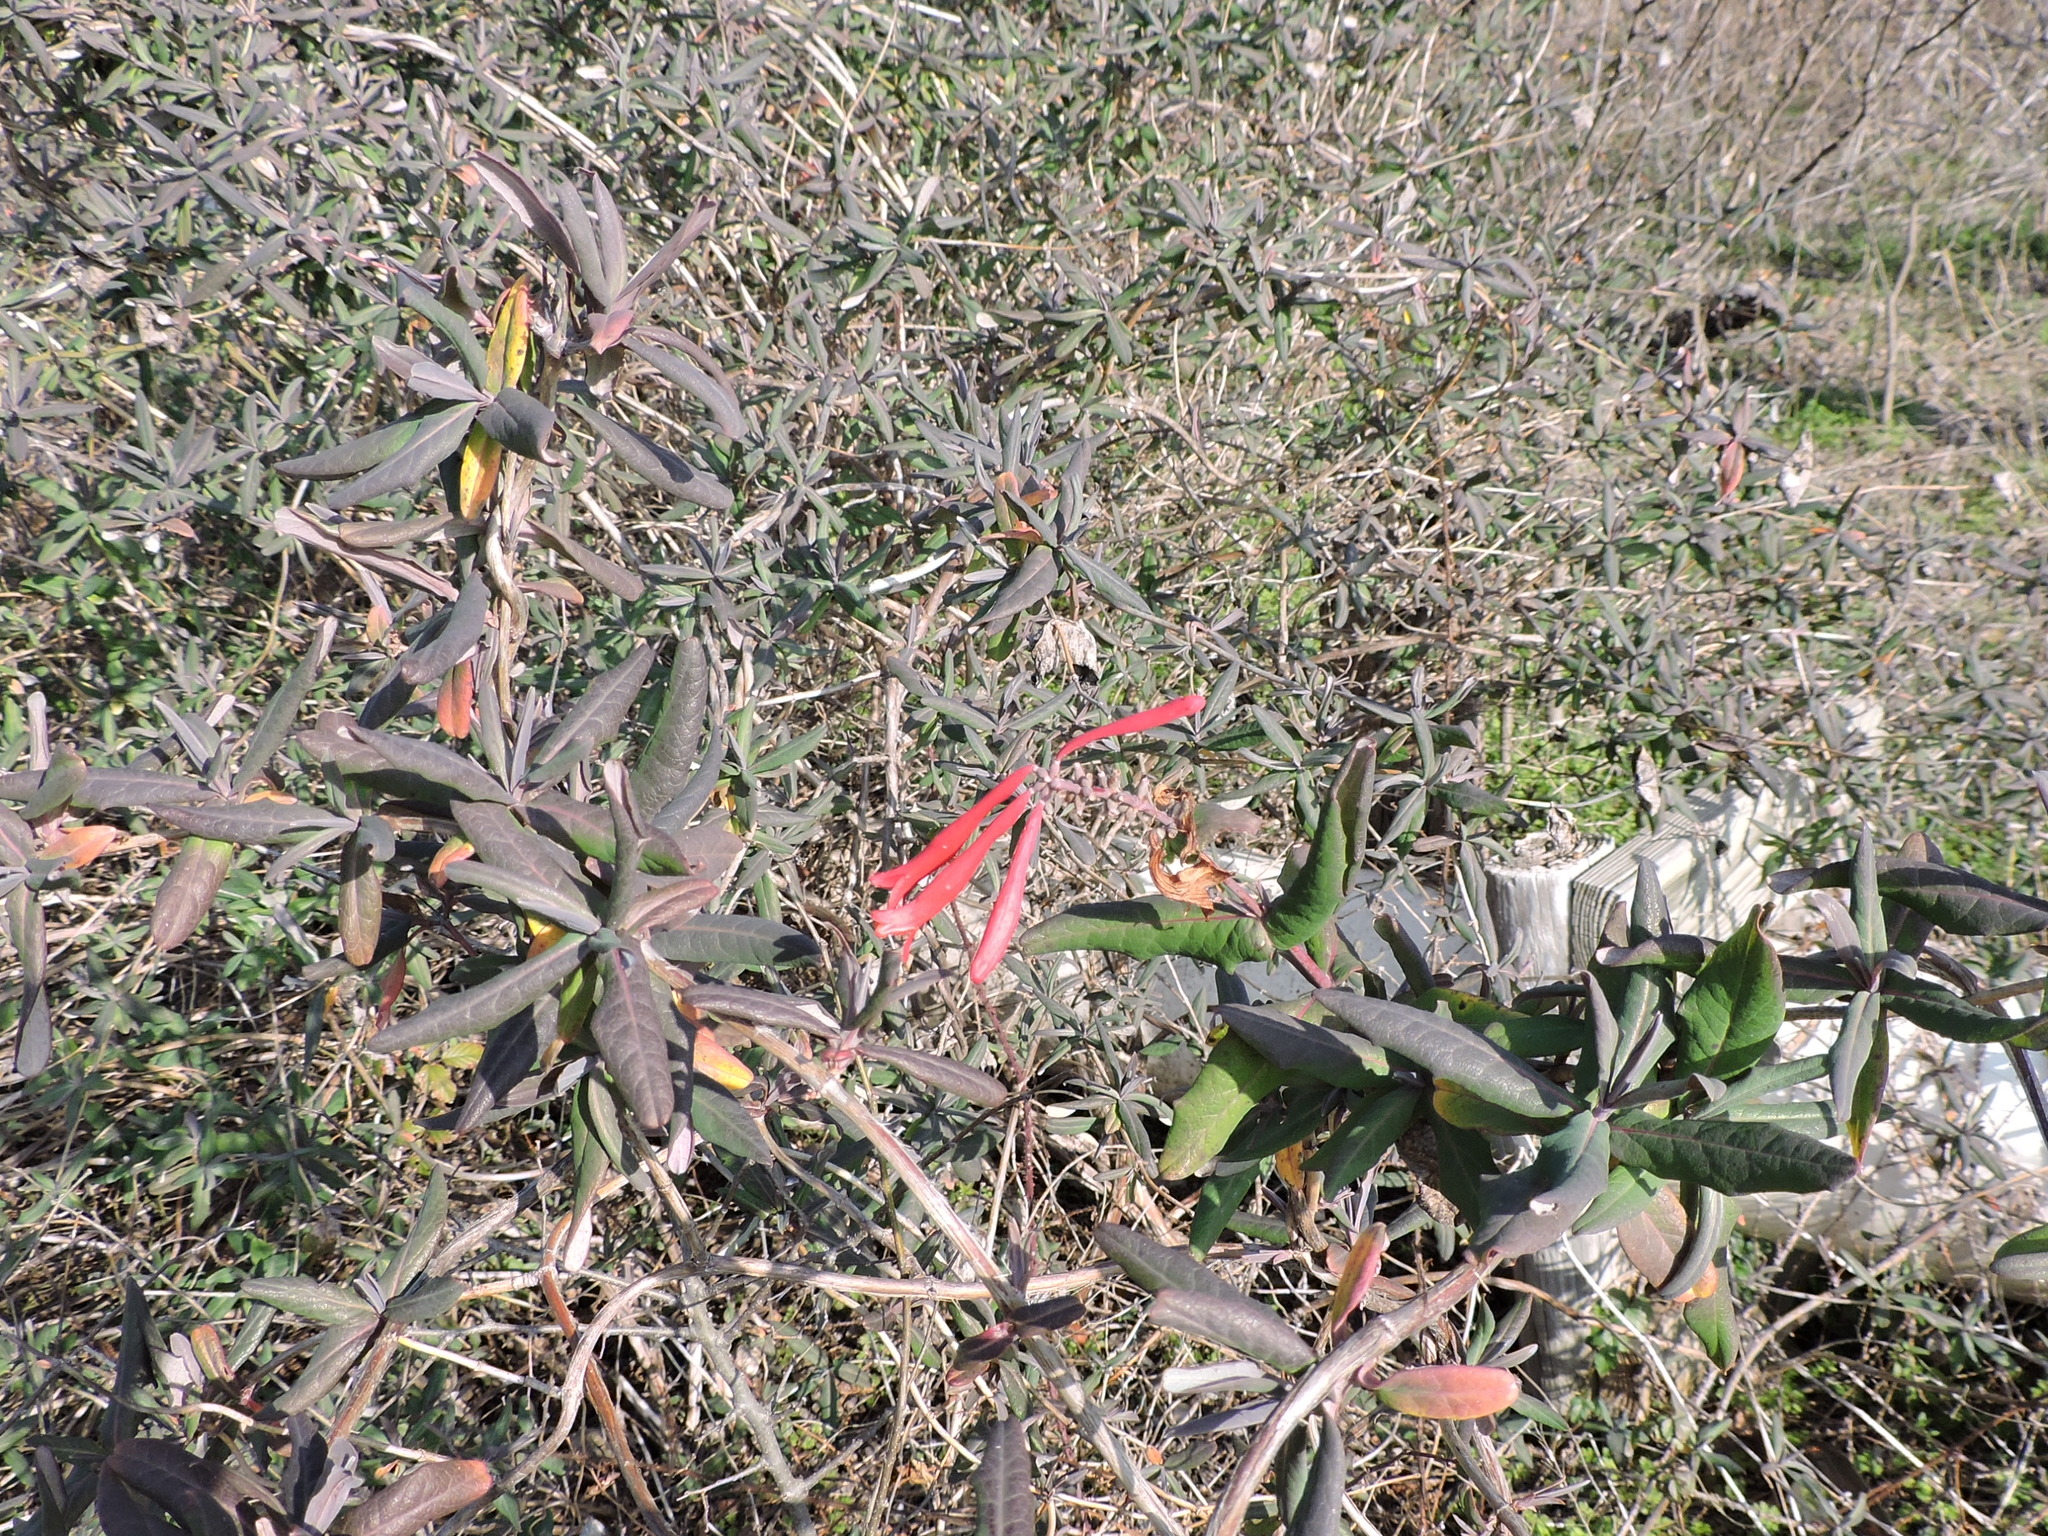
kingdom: Plantae
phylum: Tracheophyta
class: Magnoliopsida
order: Dipsacales
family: Caprifoliaceae
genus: Lonicera
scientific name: Lonicera sempervirens
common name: Coral honeysuckle
